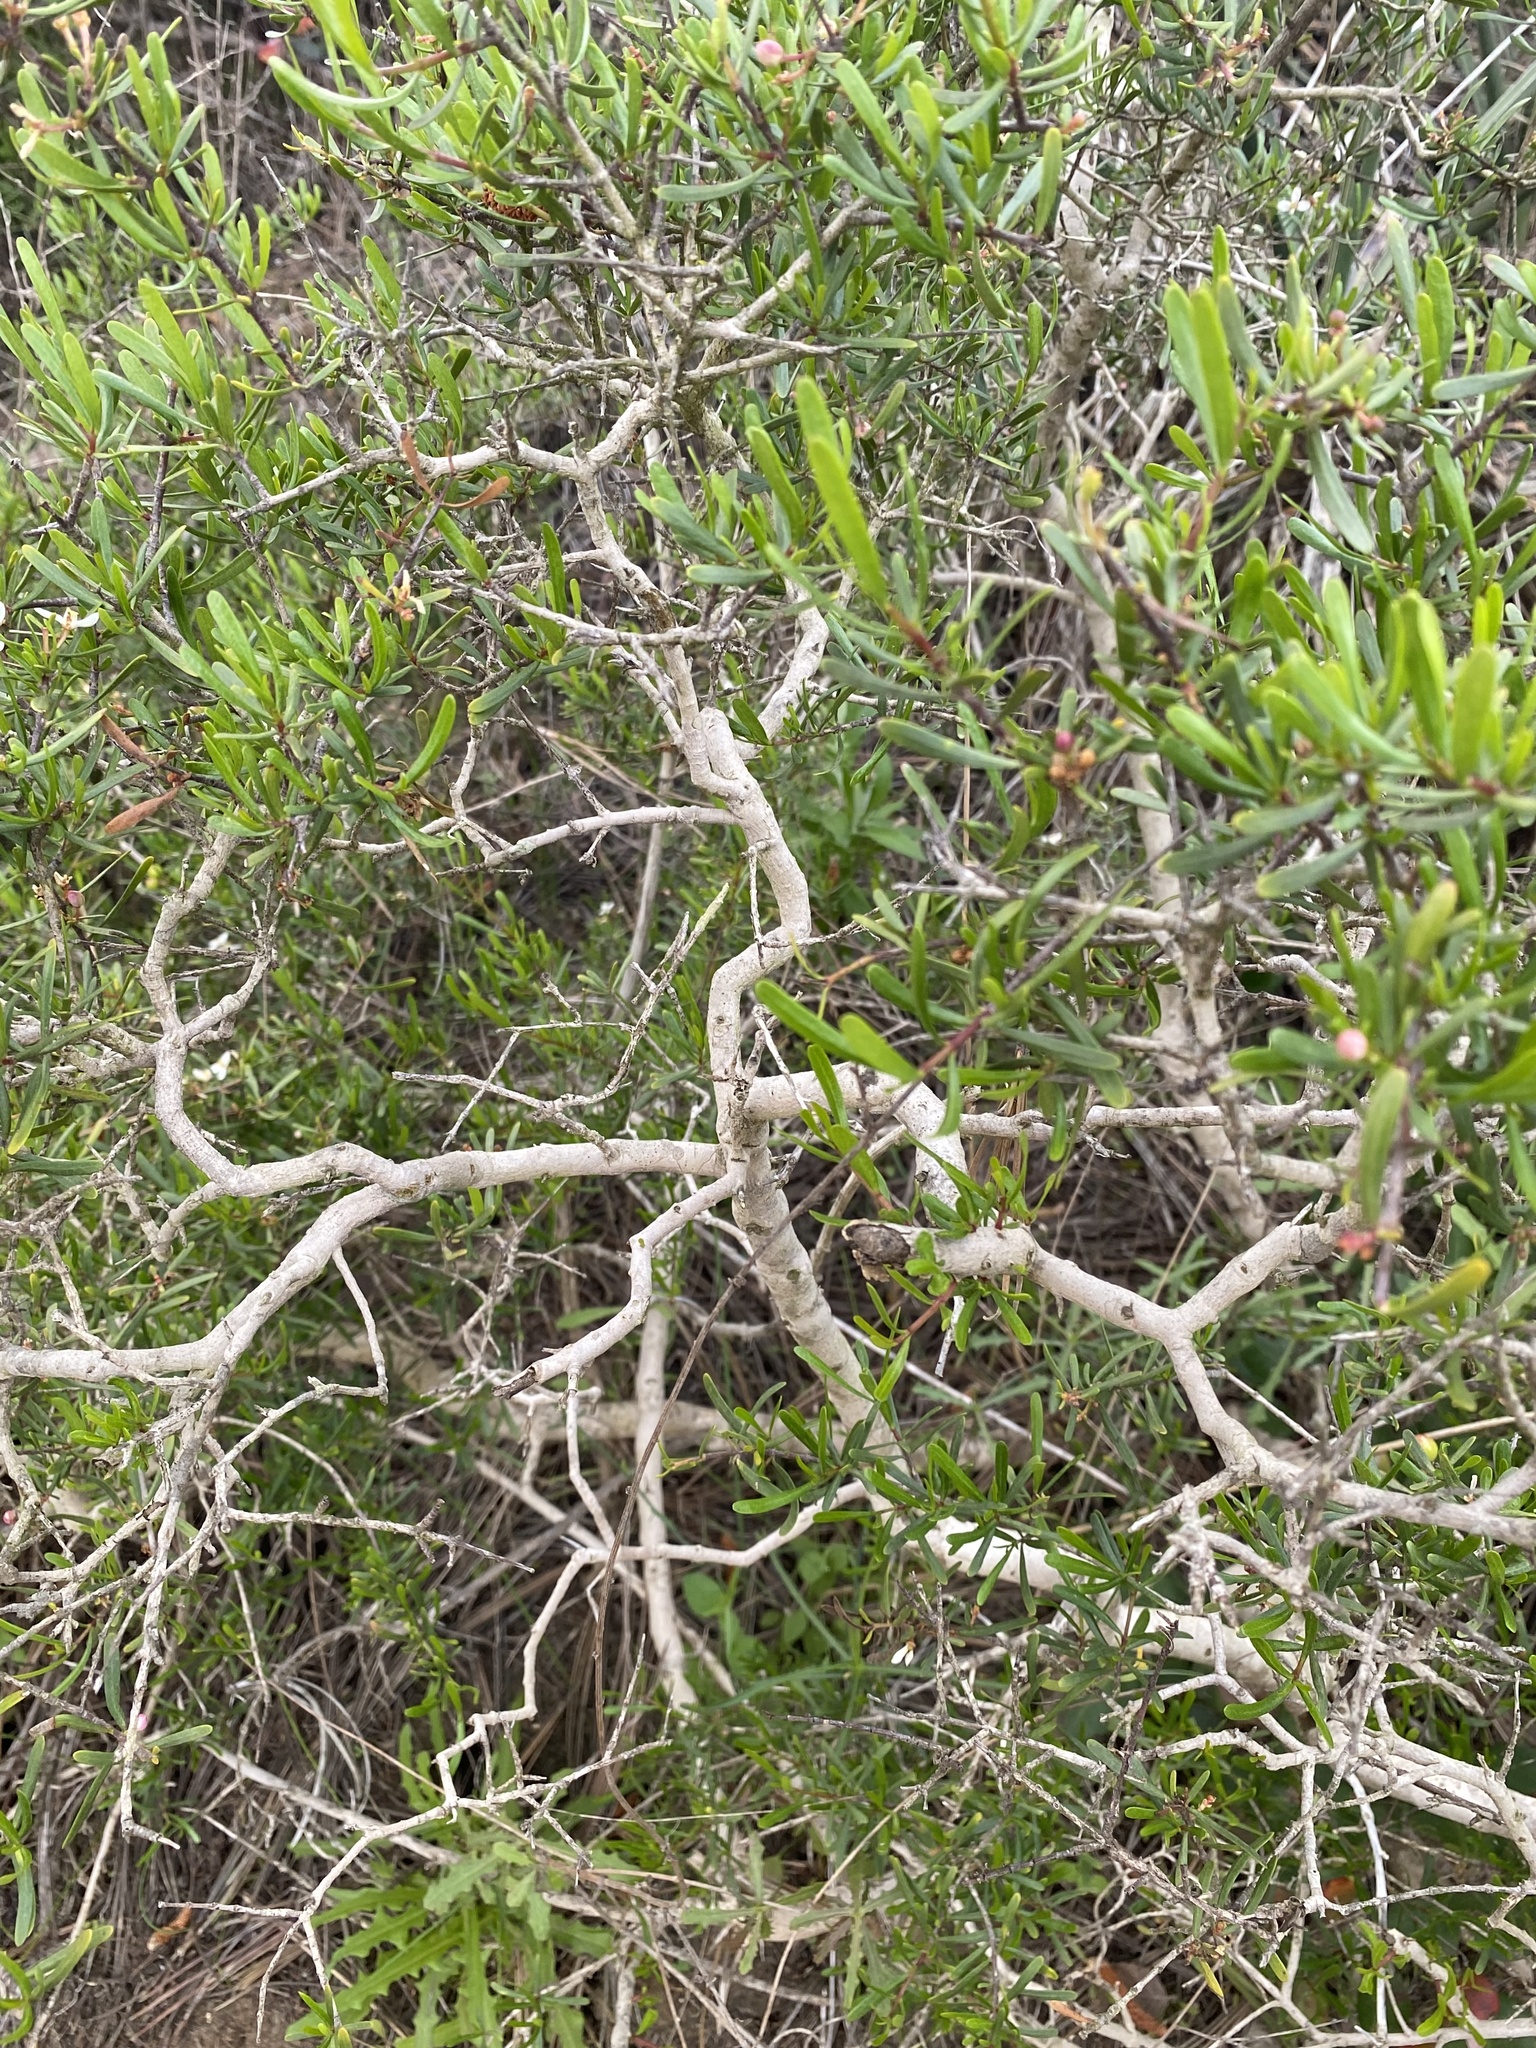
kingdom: Plantae
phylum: Tracheophyta
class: Magnoliopsida
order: Sapindales
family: Rutaceae
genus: Cneoridium
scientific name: Cneoridium dumosum
